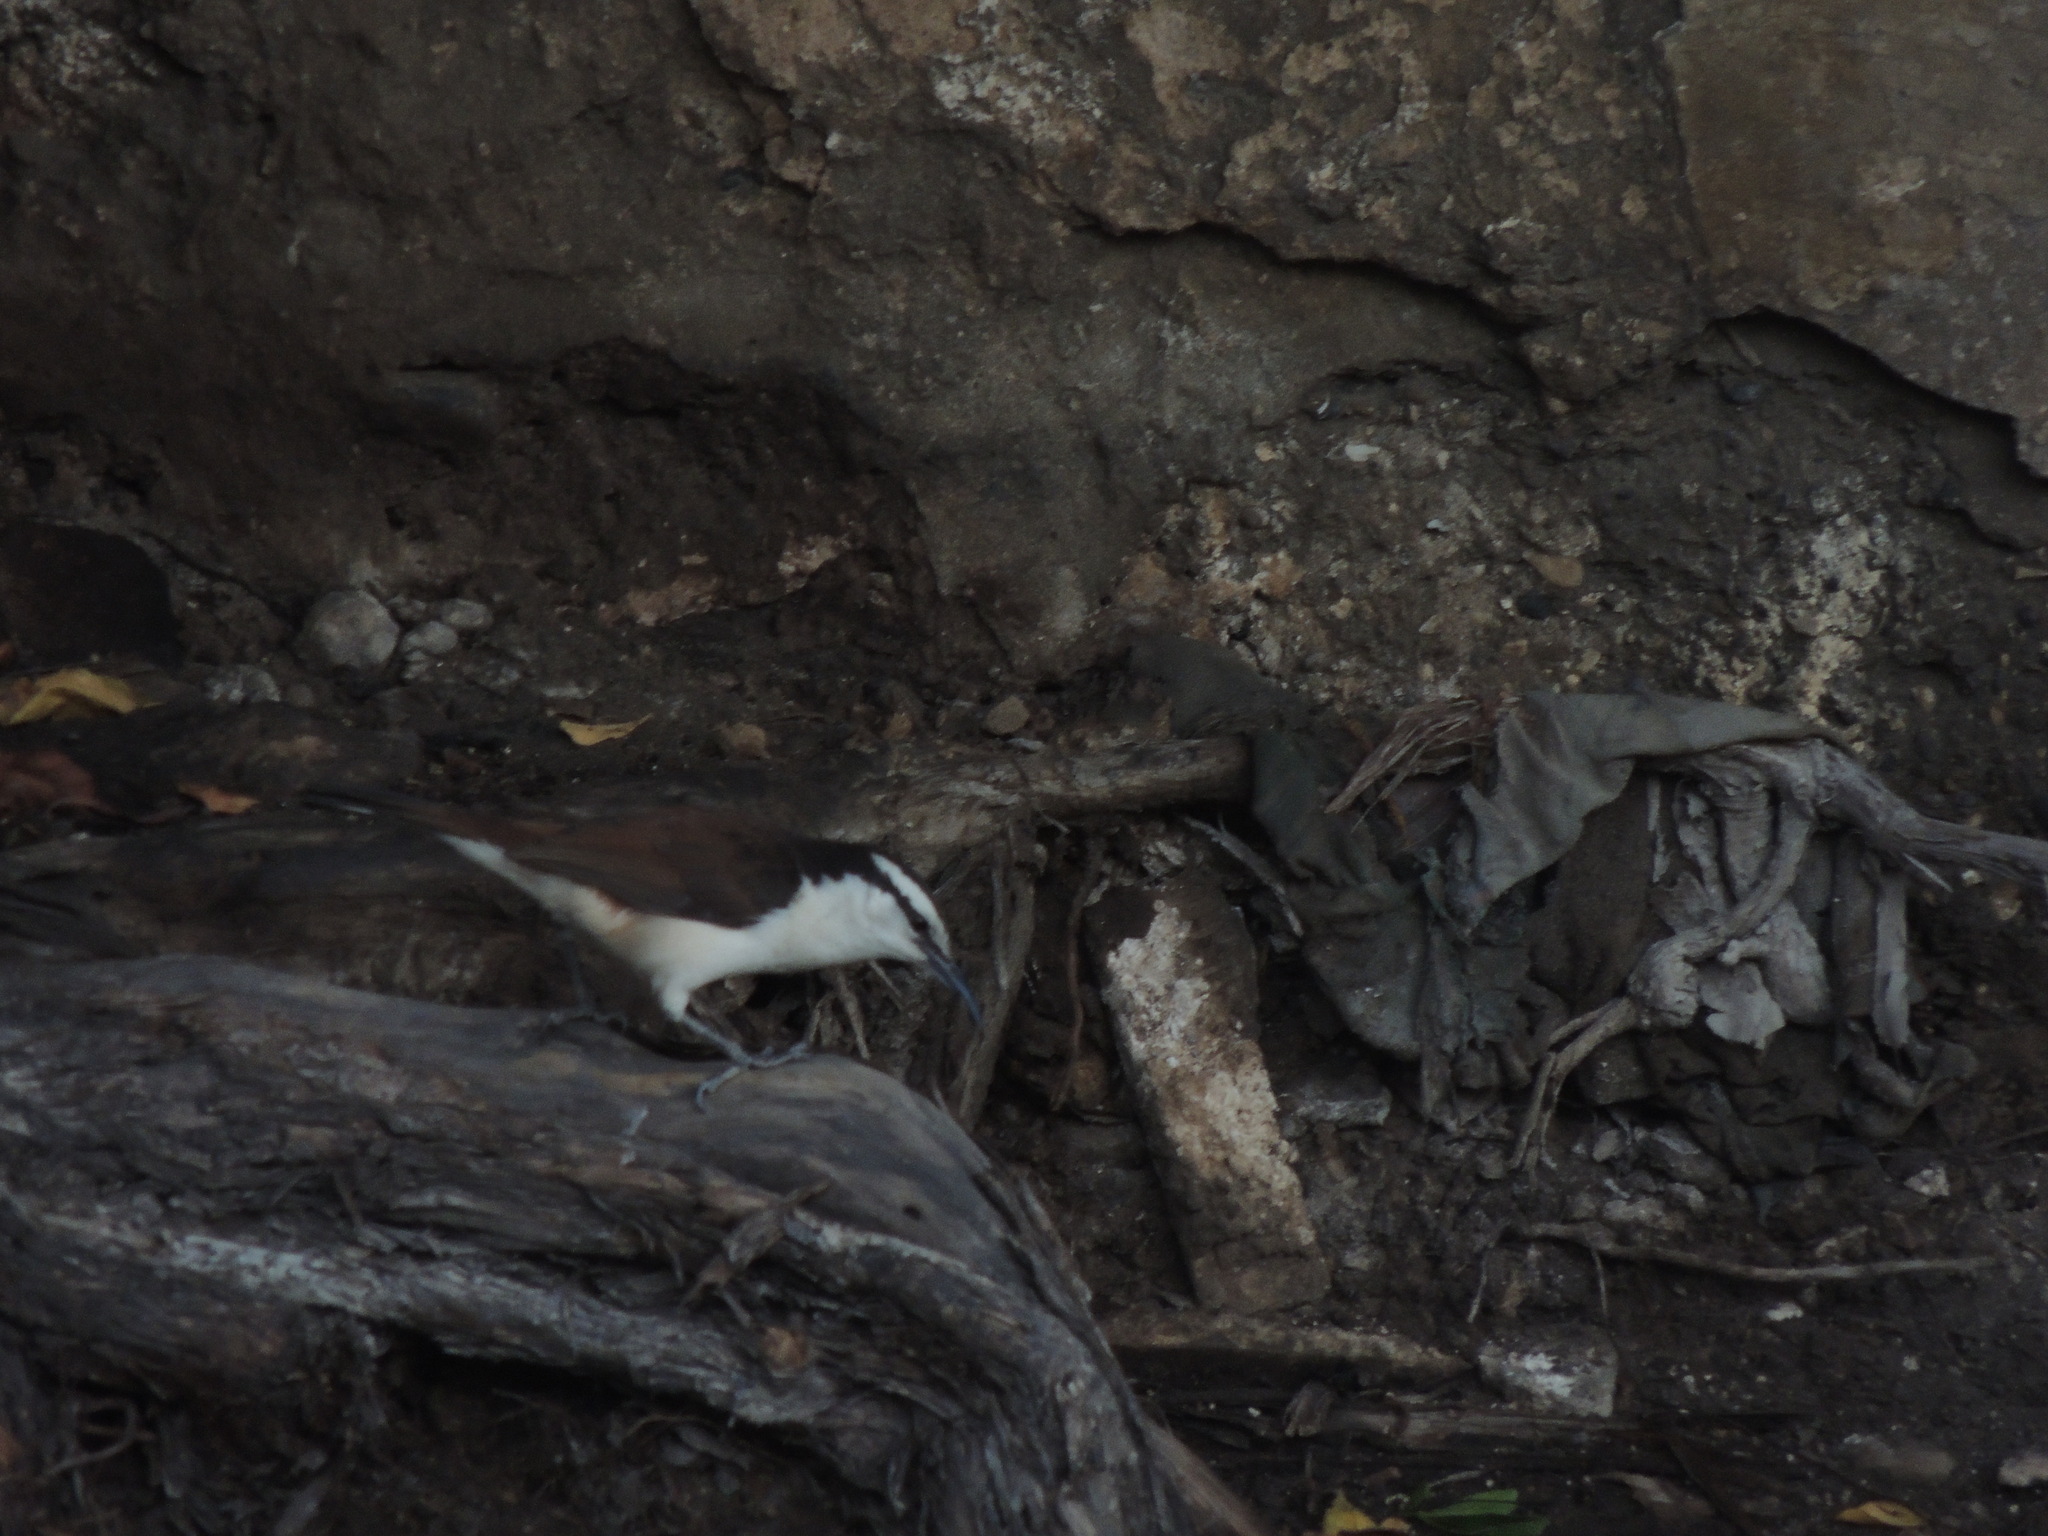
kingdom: Animalia
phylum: Chordata
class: Aves
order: Passeriformes
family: Troglodytidae
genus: Campylorhynchus
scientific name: Campylorhynchus griseus
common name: Bicolored wren
